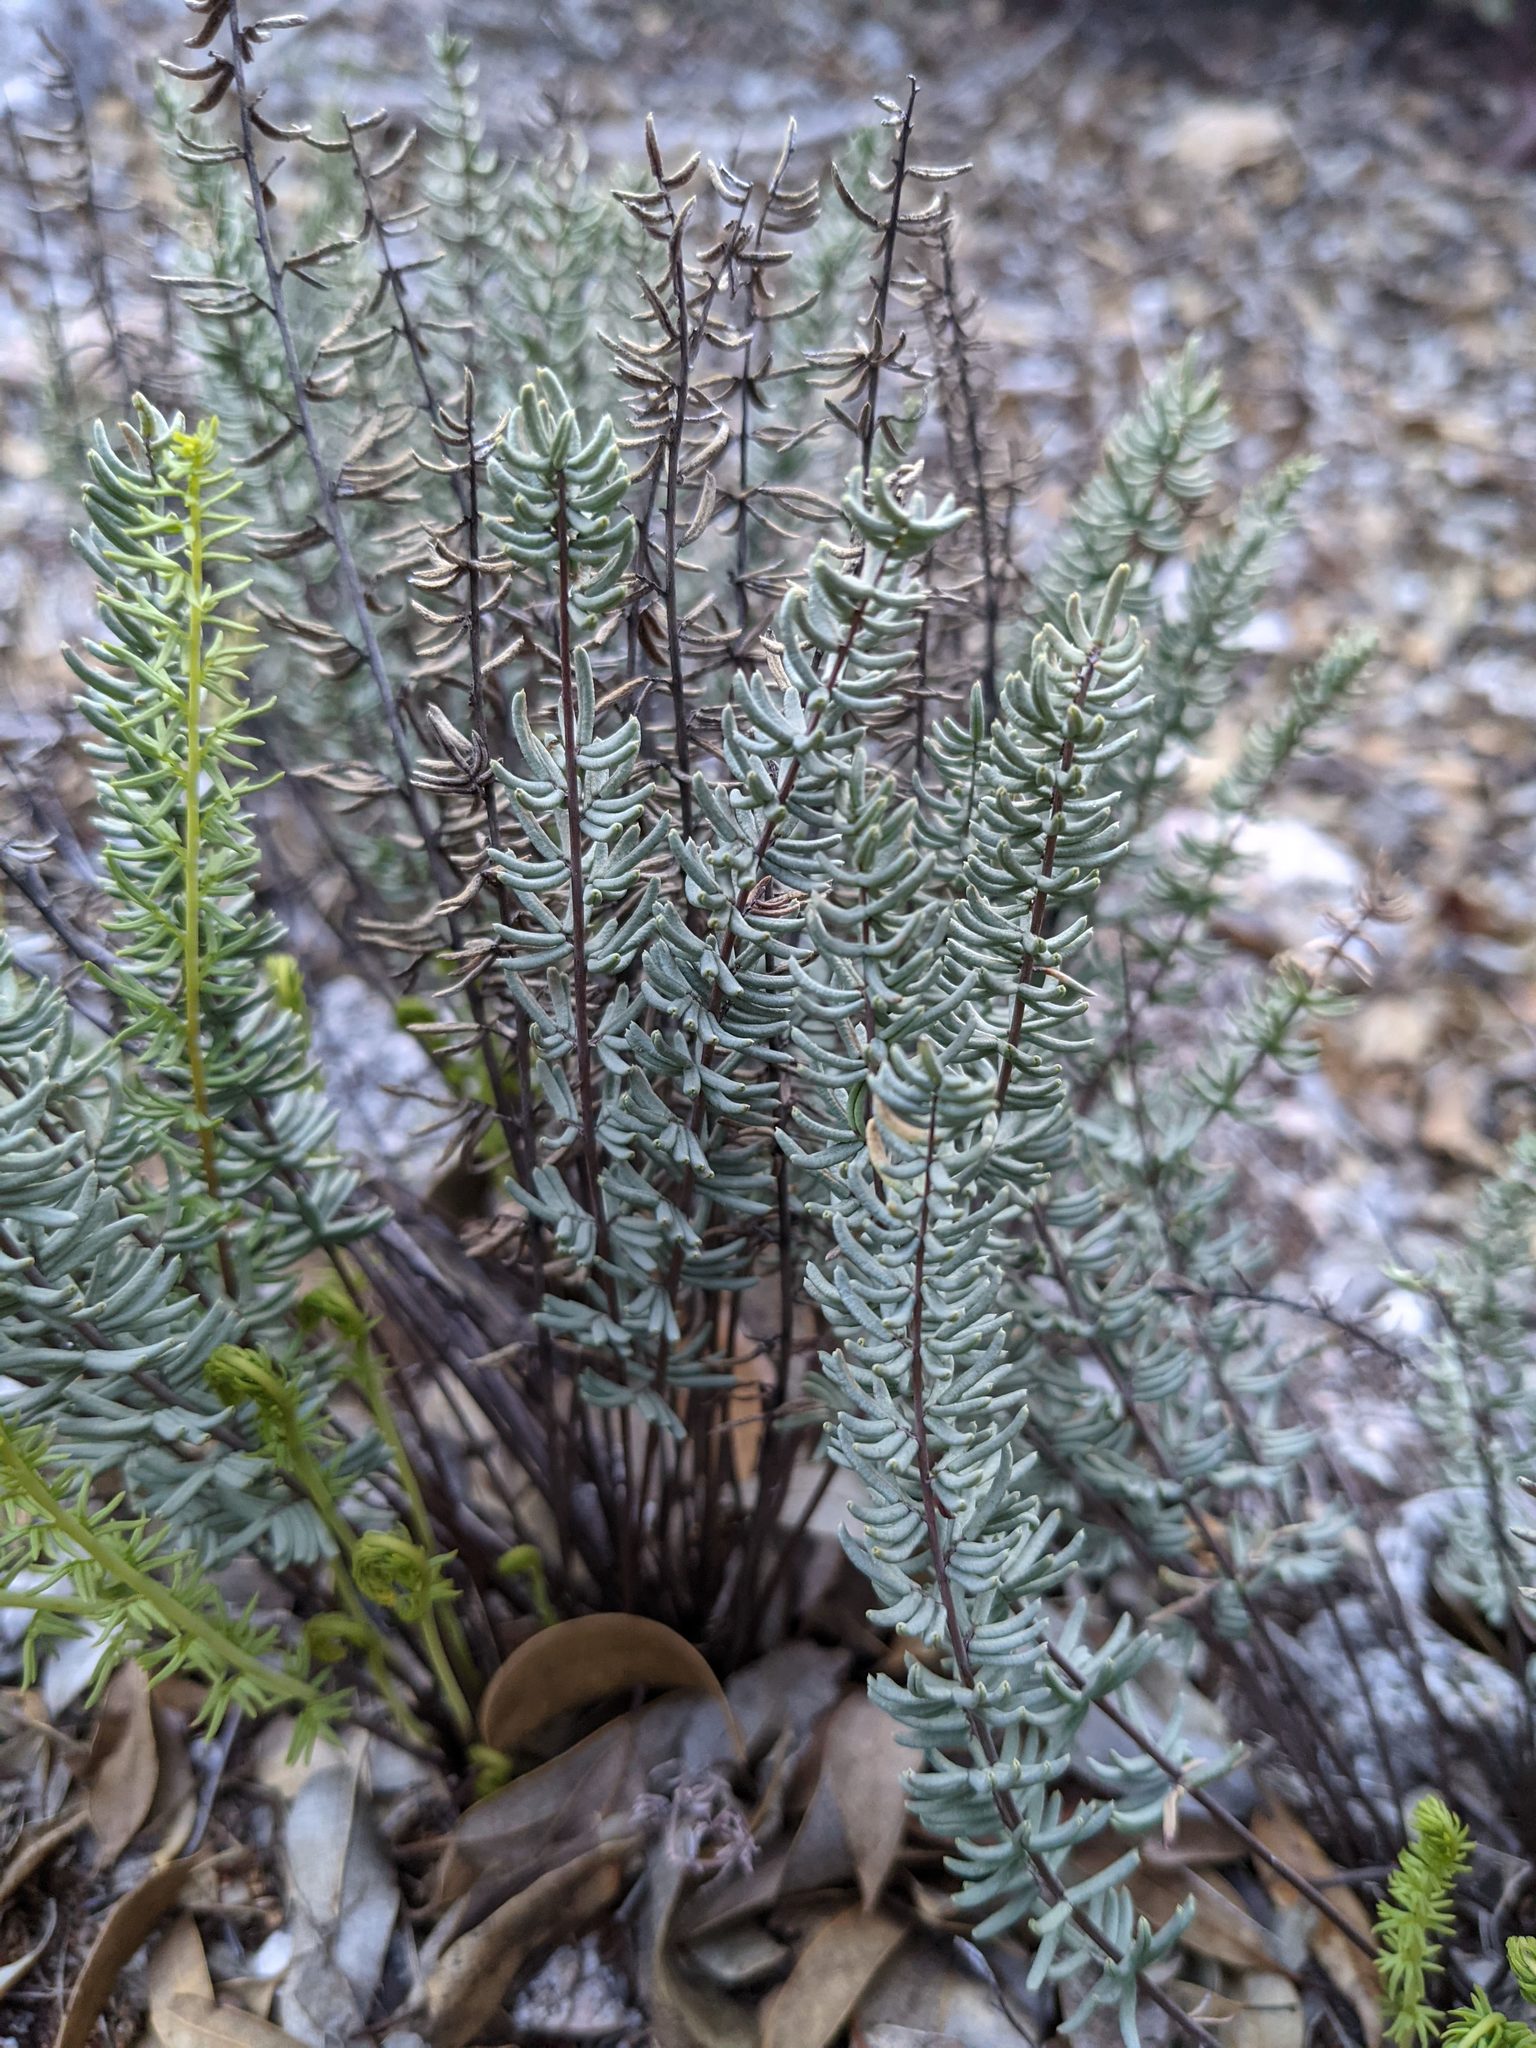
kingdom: Plantae
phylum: Tracheophyta
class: Polypodiopsida
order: Polypodiales
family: Pteridaceae
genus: Pellaea
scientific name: Pellaea brachyptera
